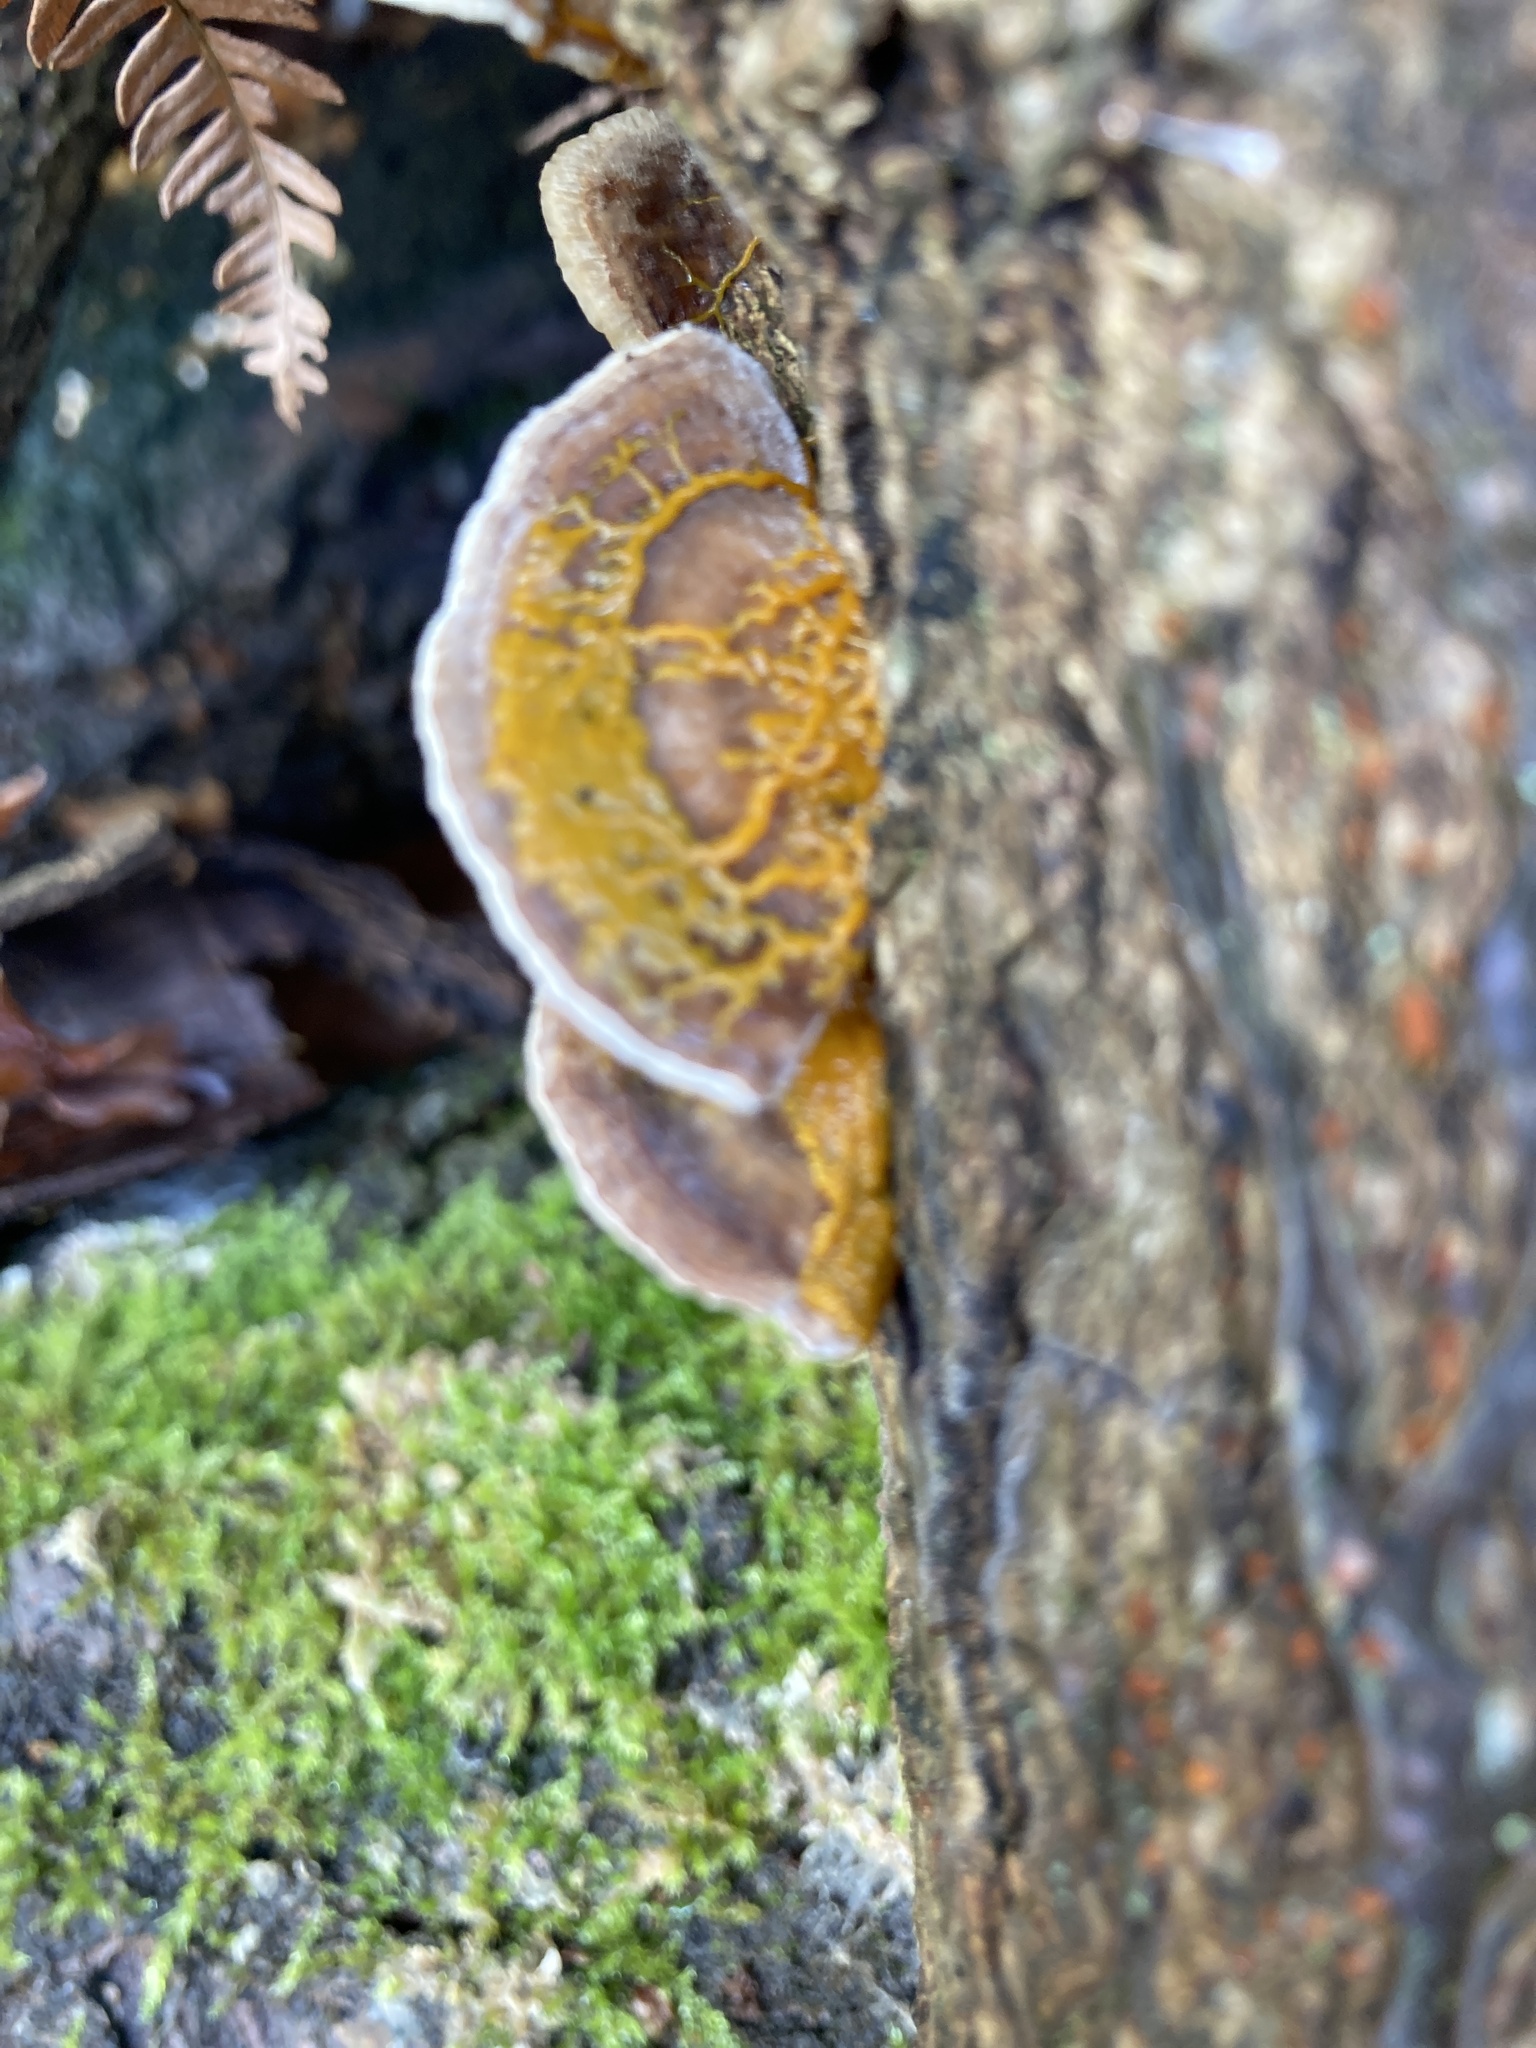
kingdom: Fungi
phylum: Basidiomycota
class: Agaricomycetes
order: Polyporales
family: Polyporaceae
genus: Daedaleopsis
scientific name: Daedaleopsis confragosa
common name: Blushing bracket
